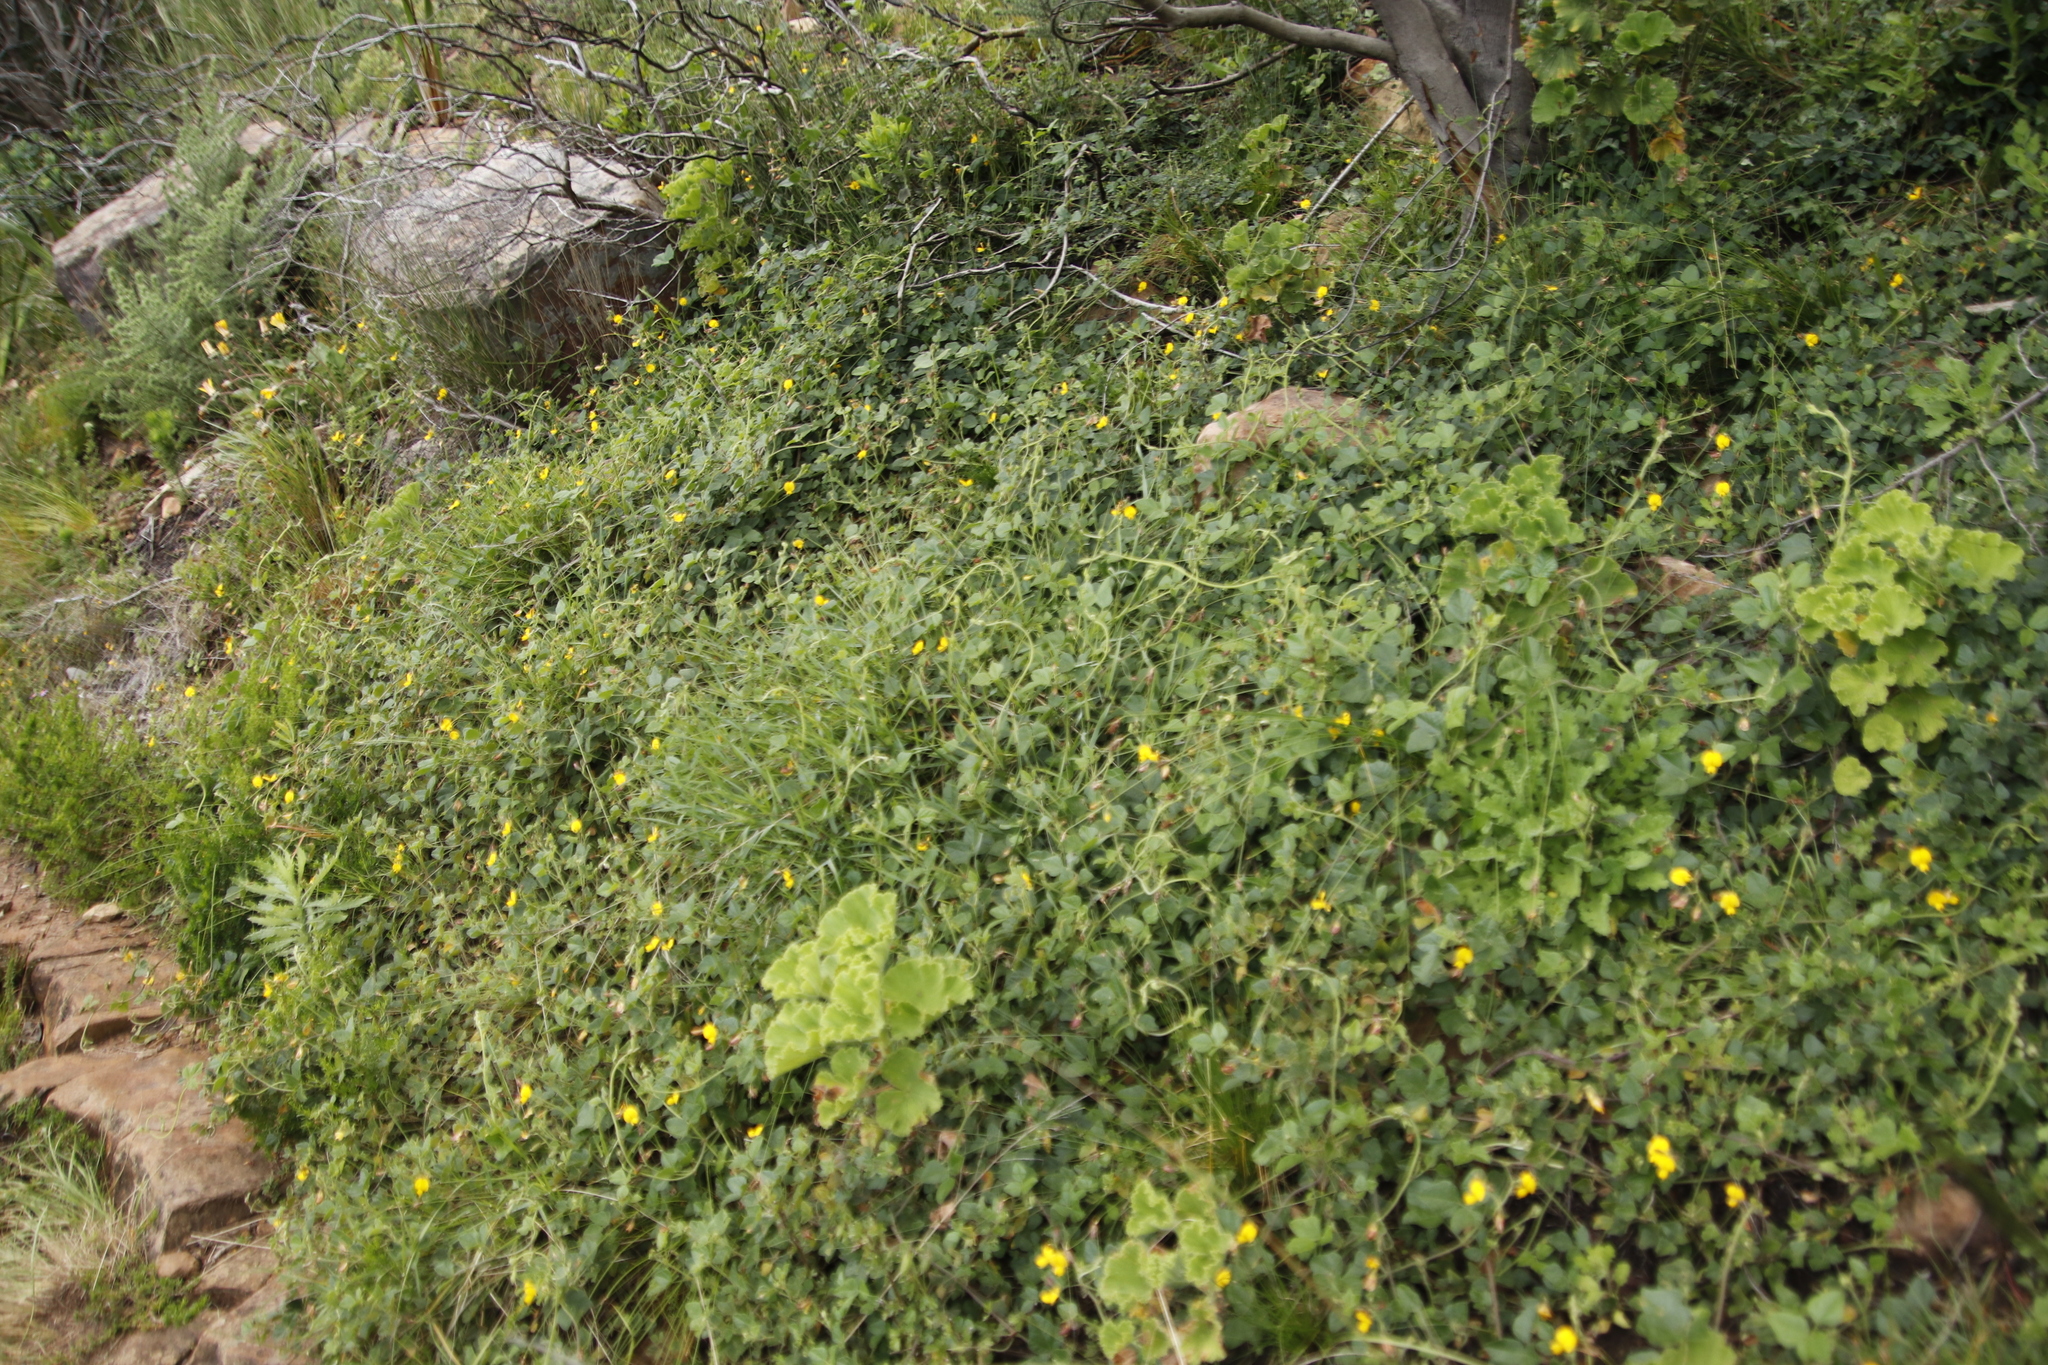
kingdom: Plantae
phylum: Tracheophyta
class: Magnoliopsida
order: Fabales
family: Fabaceae
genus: Bolusafra
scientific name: Bolusafra bituminosa
